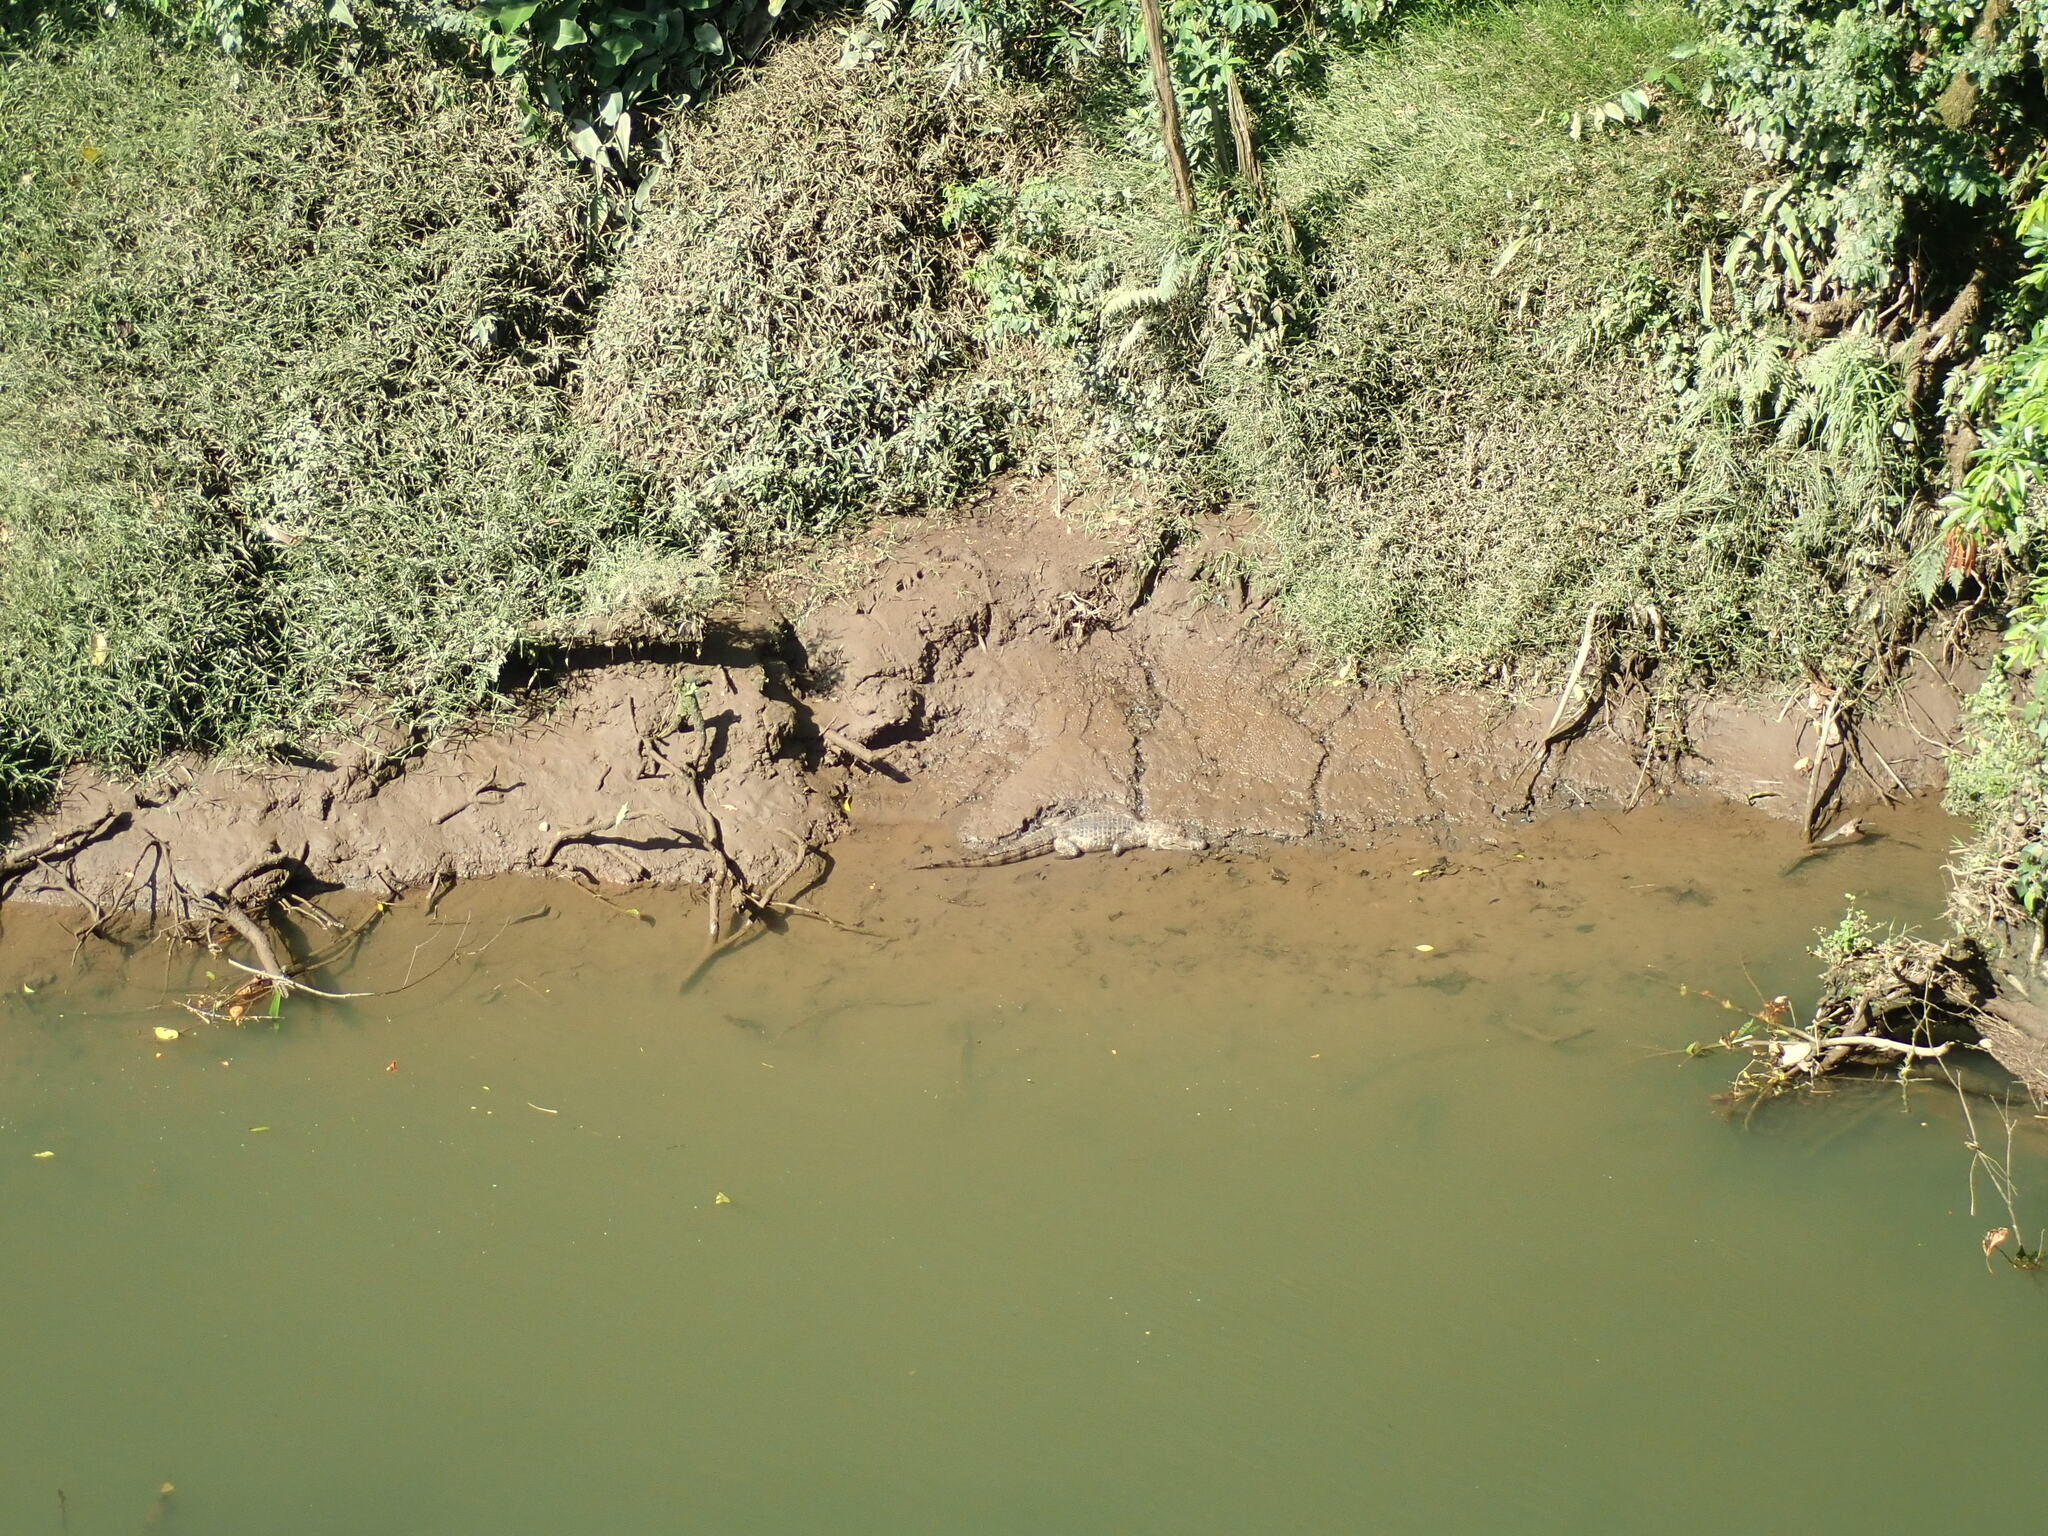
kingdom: Animalia
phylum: Chordata
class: Crocodylia
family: Alligatoridae
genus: Caiman
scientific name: Caiman crocodilus
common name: Common caiman
